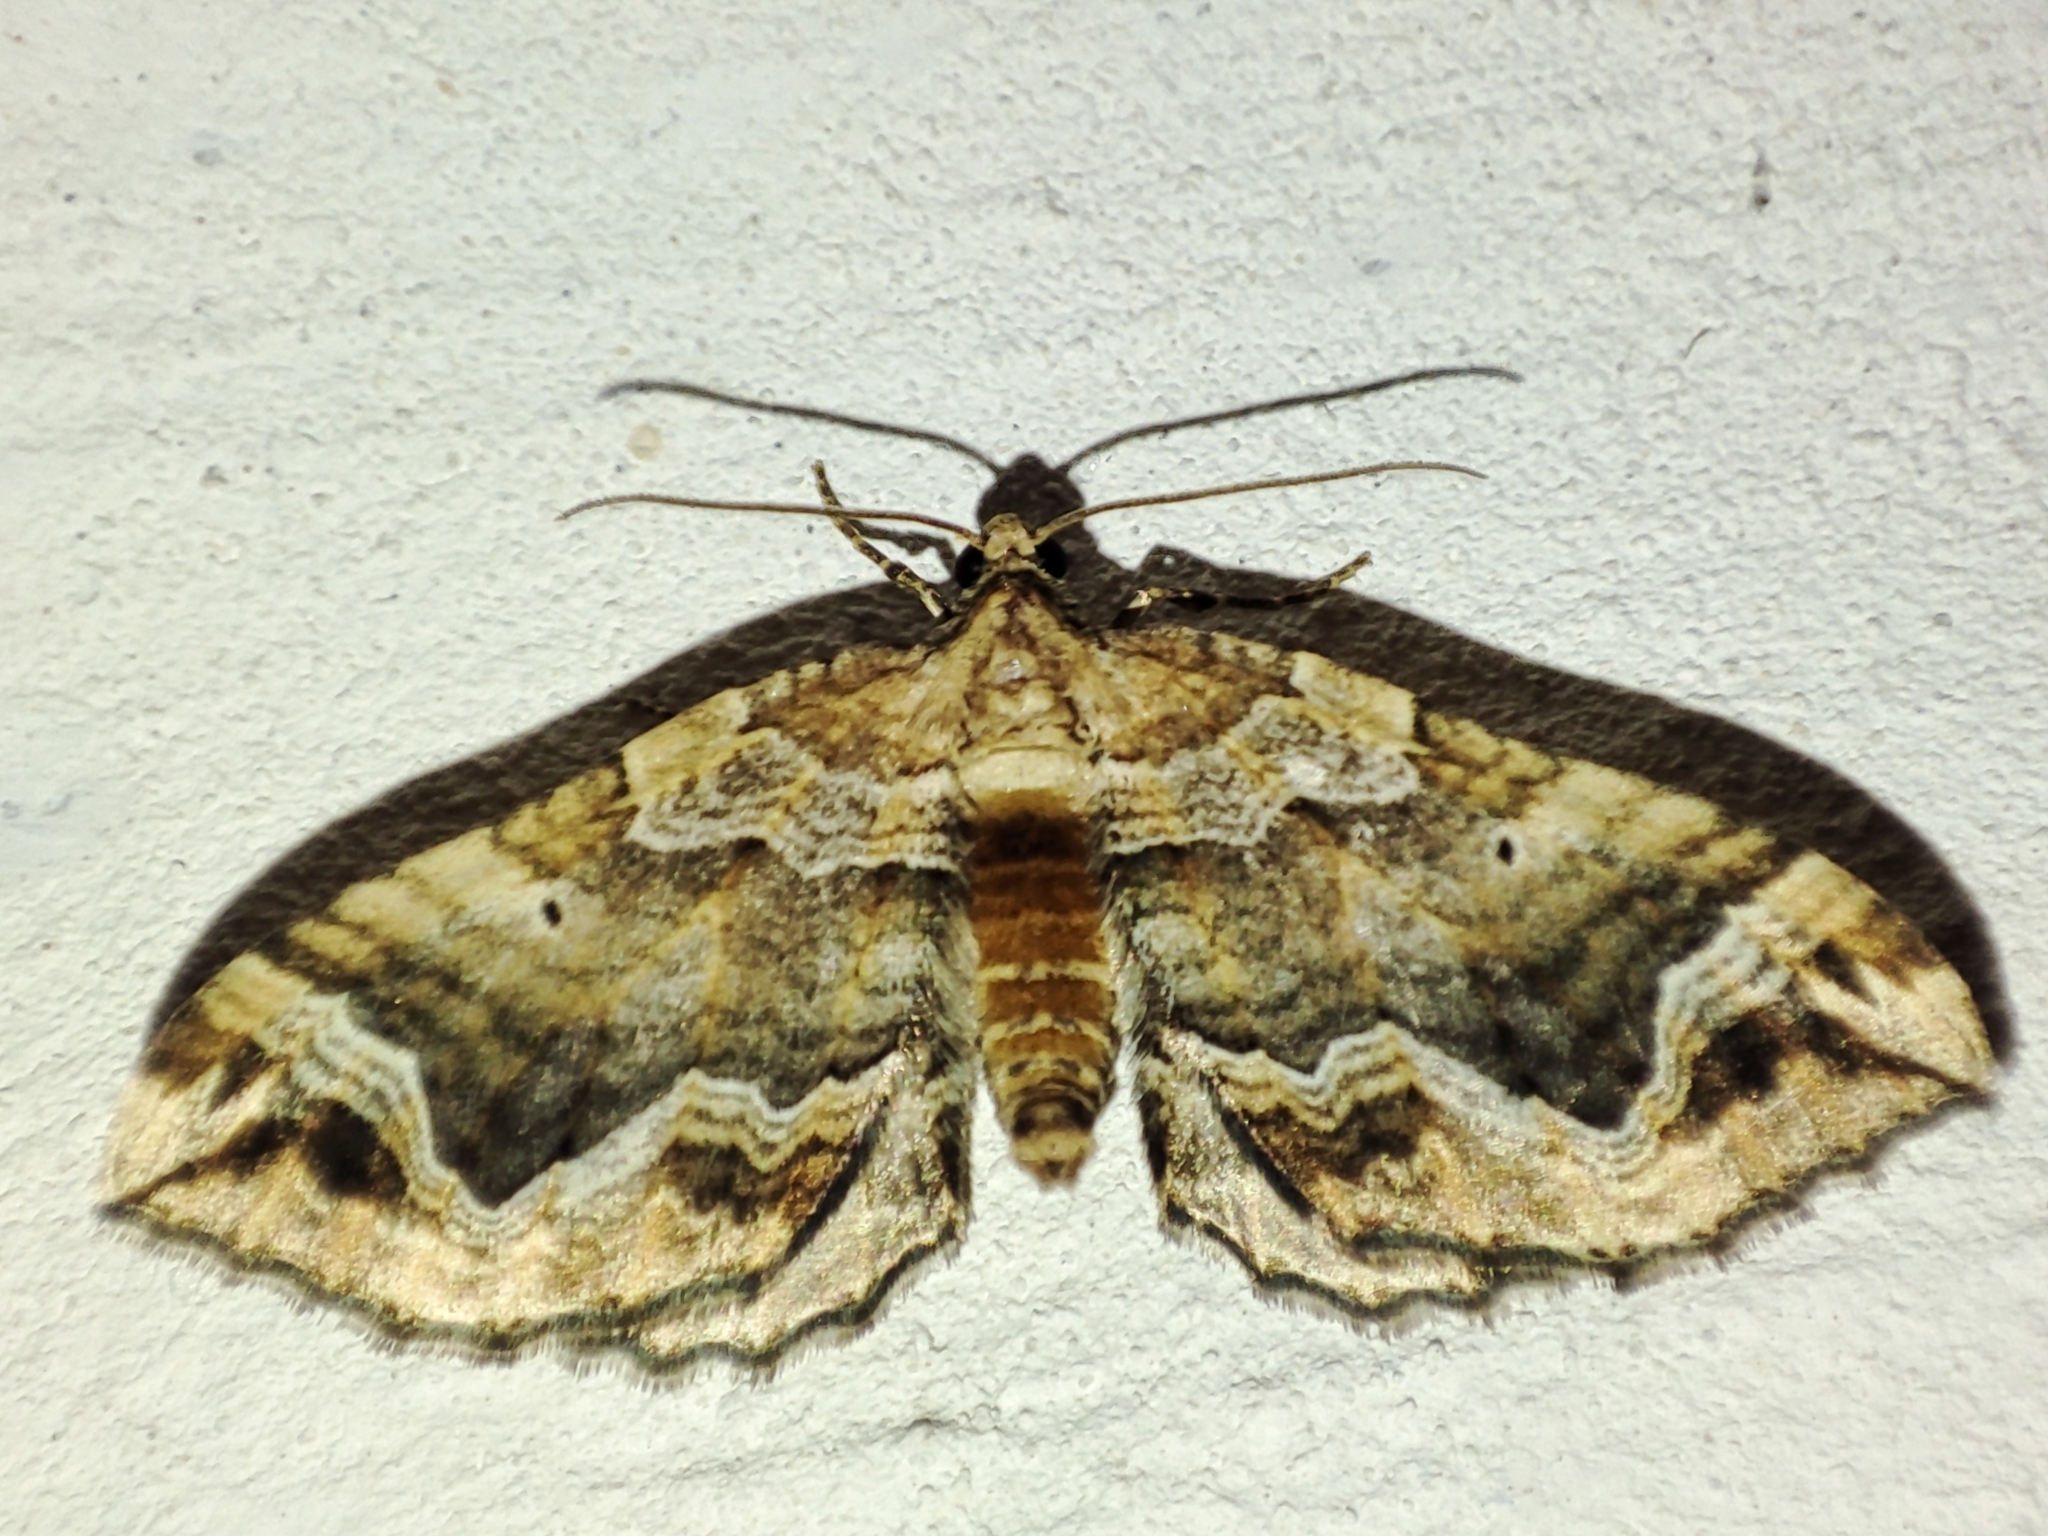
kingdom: Animalia
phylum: Arthropoda
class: Insecta
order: Lepidoptera
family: Geometridae
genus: Pelurga
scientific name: Pelurga comitata
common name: Dark spinach
